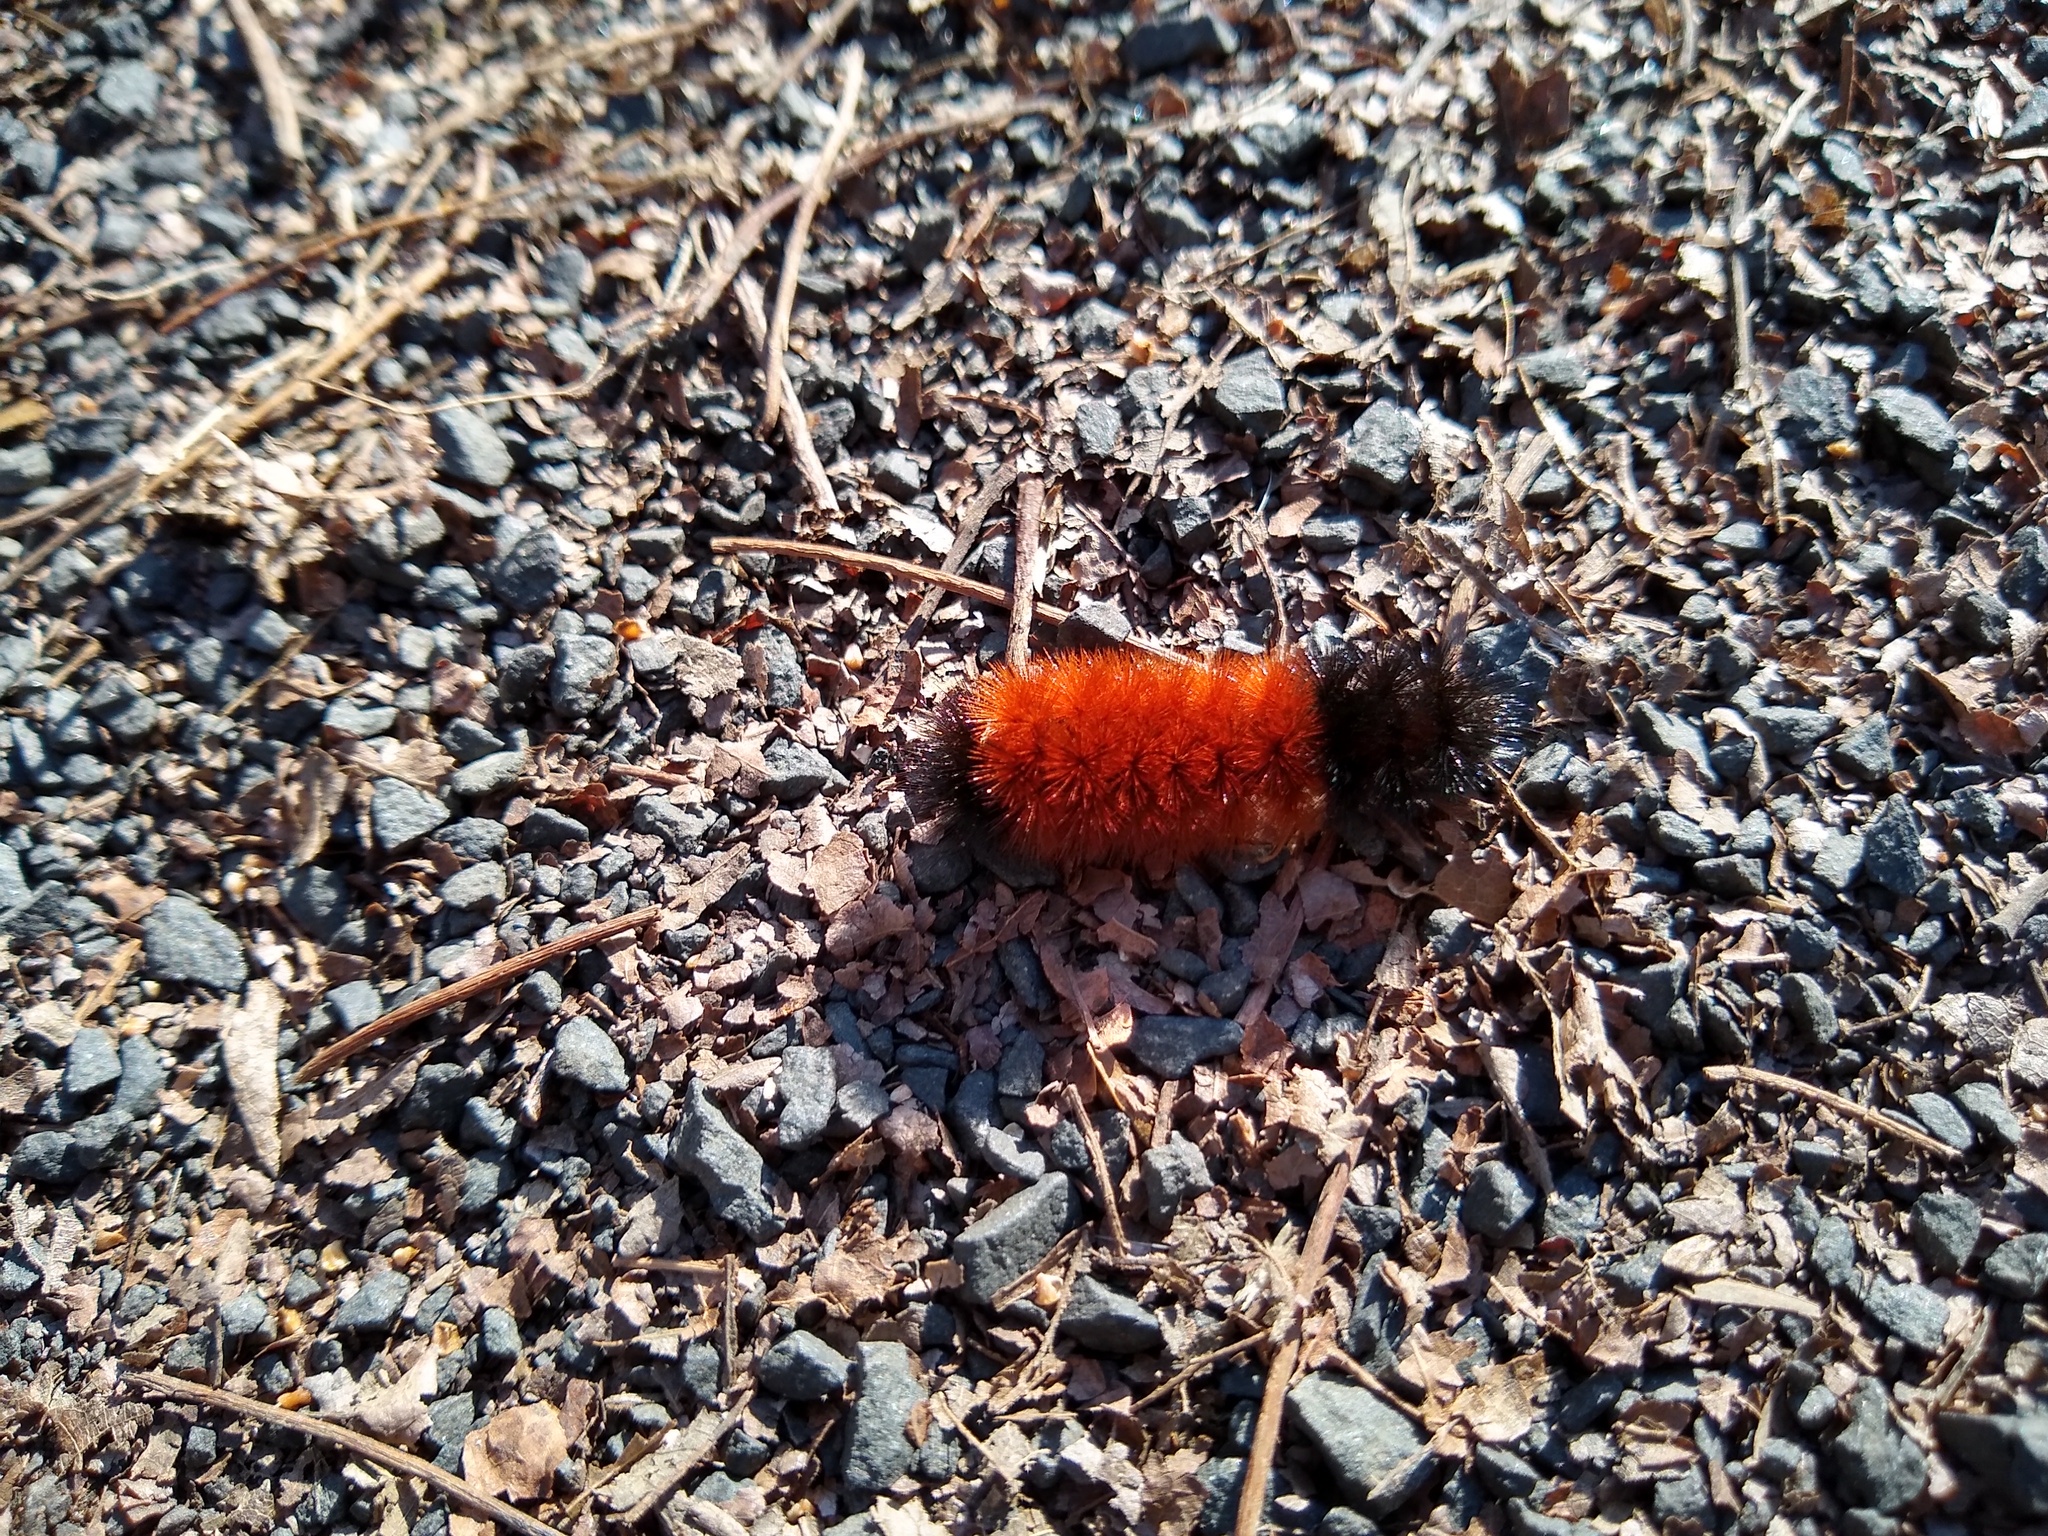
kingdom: Animalia
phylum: Arthropoda
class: Insecta
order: Lepidoptera
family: Erebidae
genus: Pyrrharctia
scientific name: Pyrrharctia isabella
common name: Isabella tiger moth
